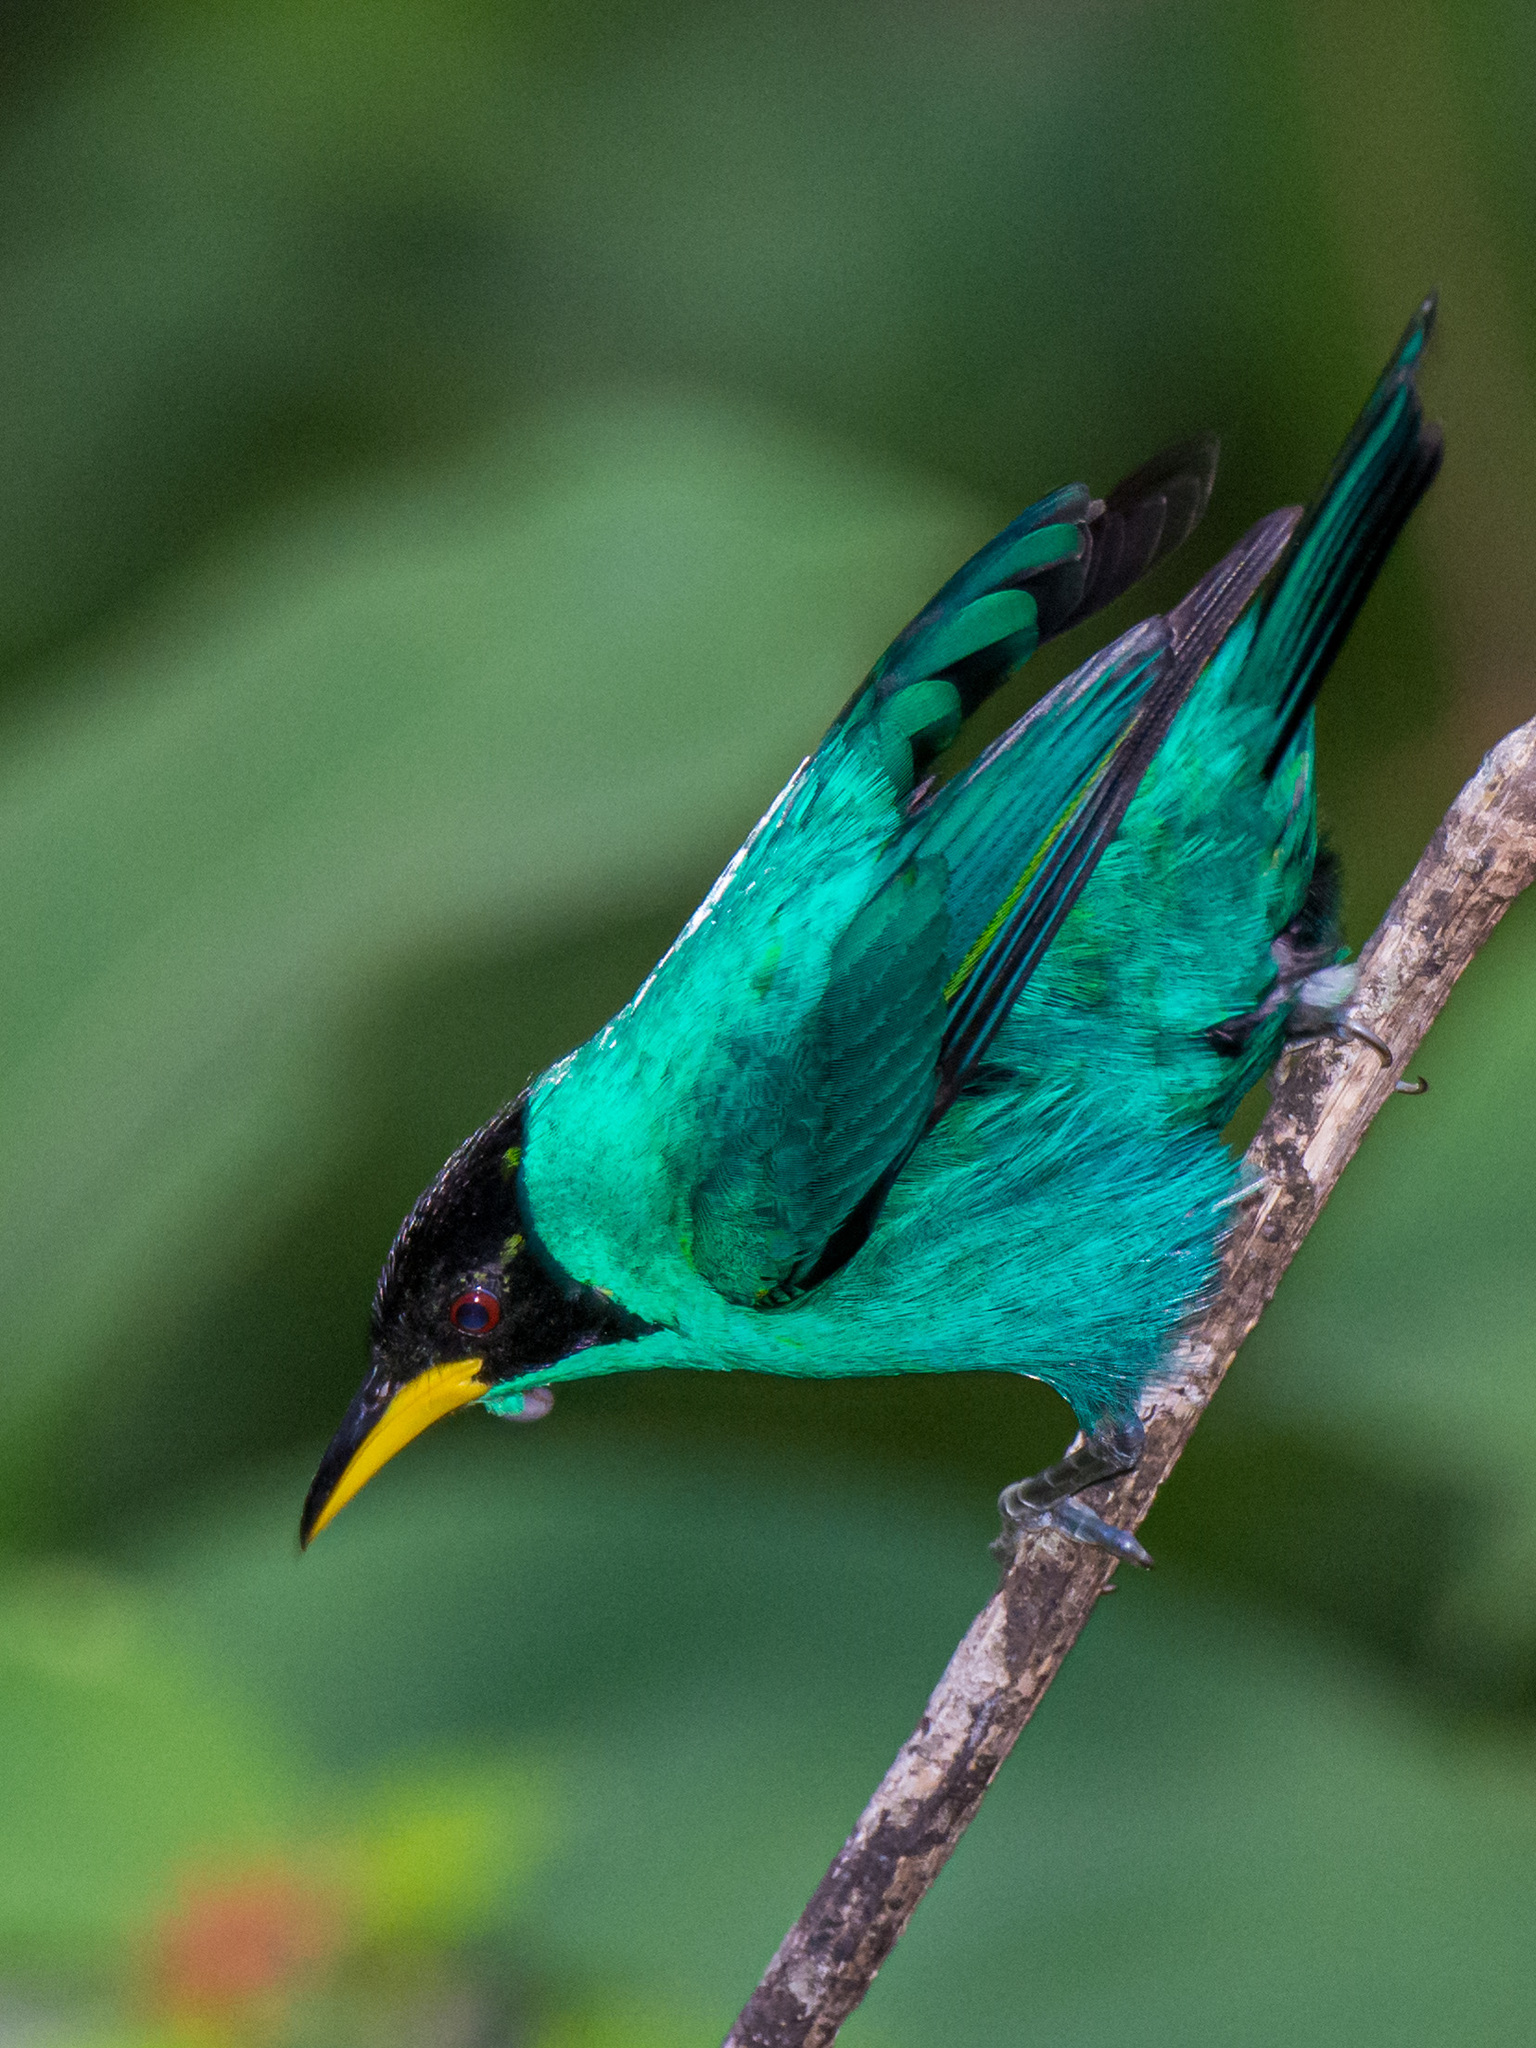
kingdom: Animalia
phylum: Chordata
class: Aves
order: Passeriformes
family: Thraupidae
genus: Chlorophanes
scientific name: Chlorophanes spiza
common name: Green honeycreeper
